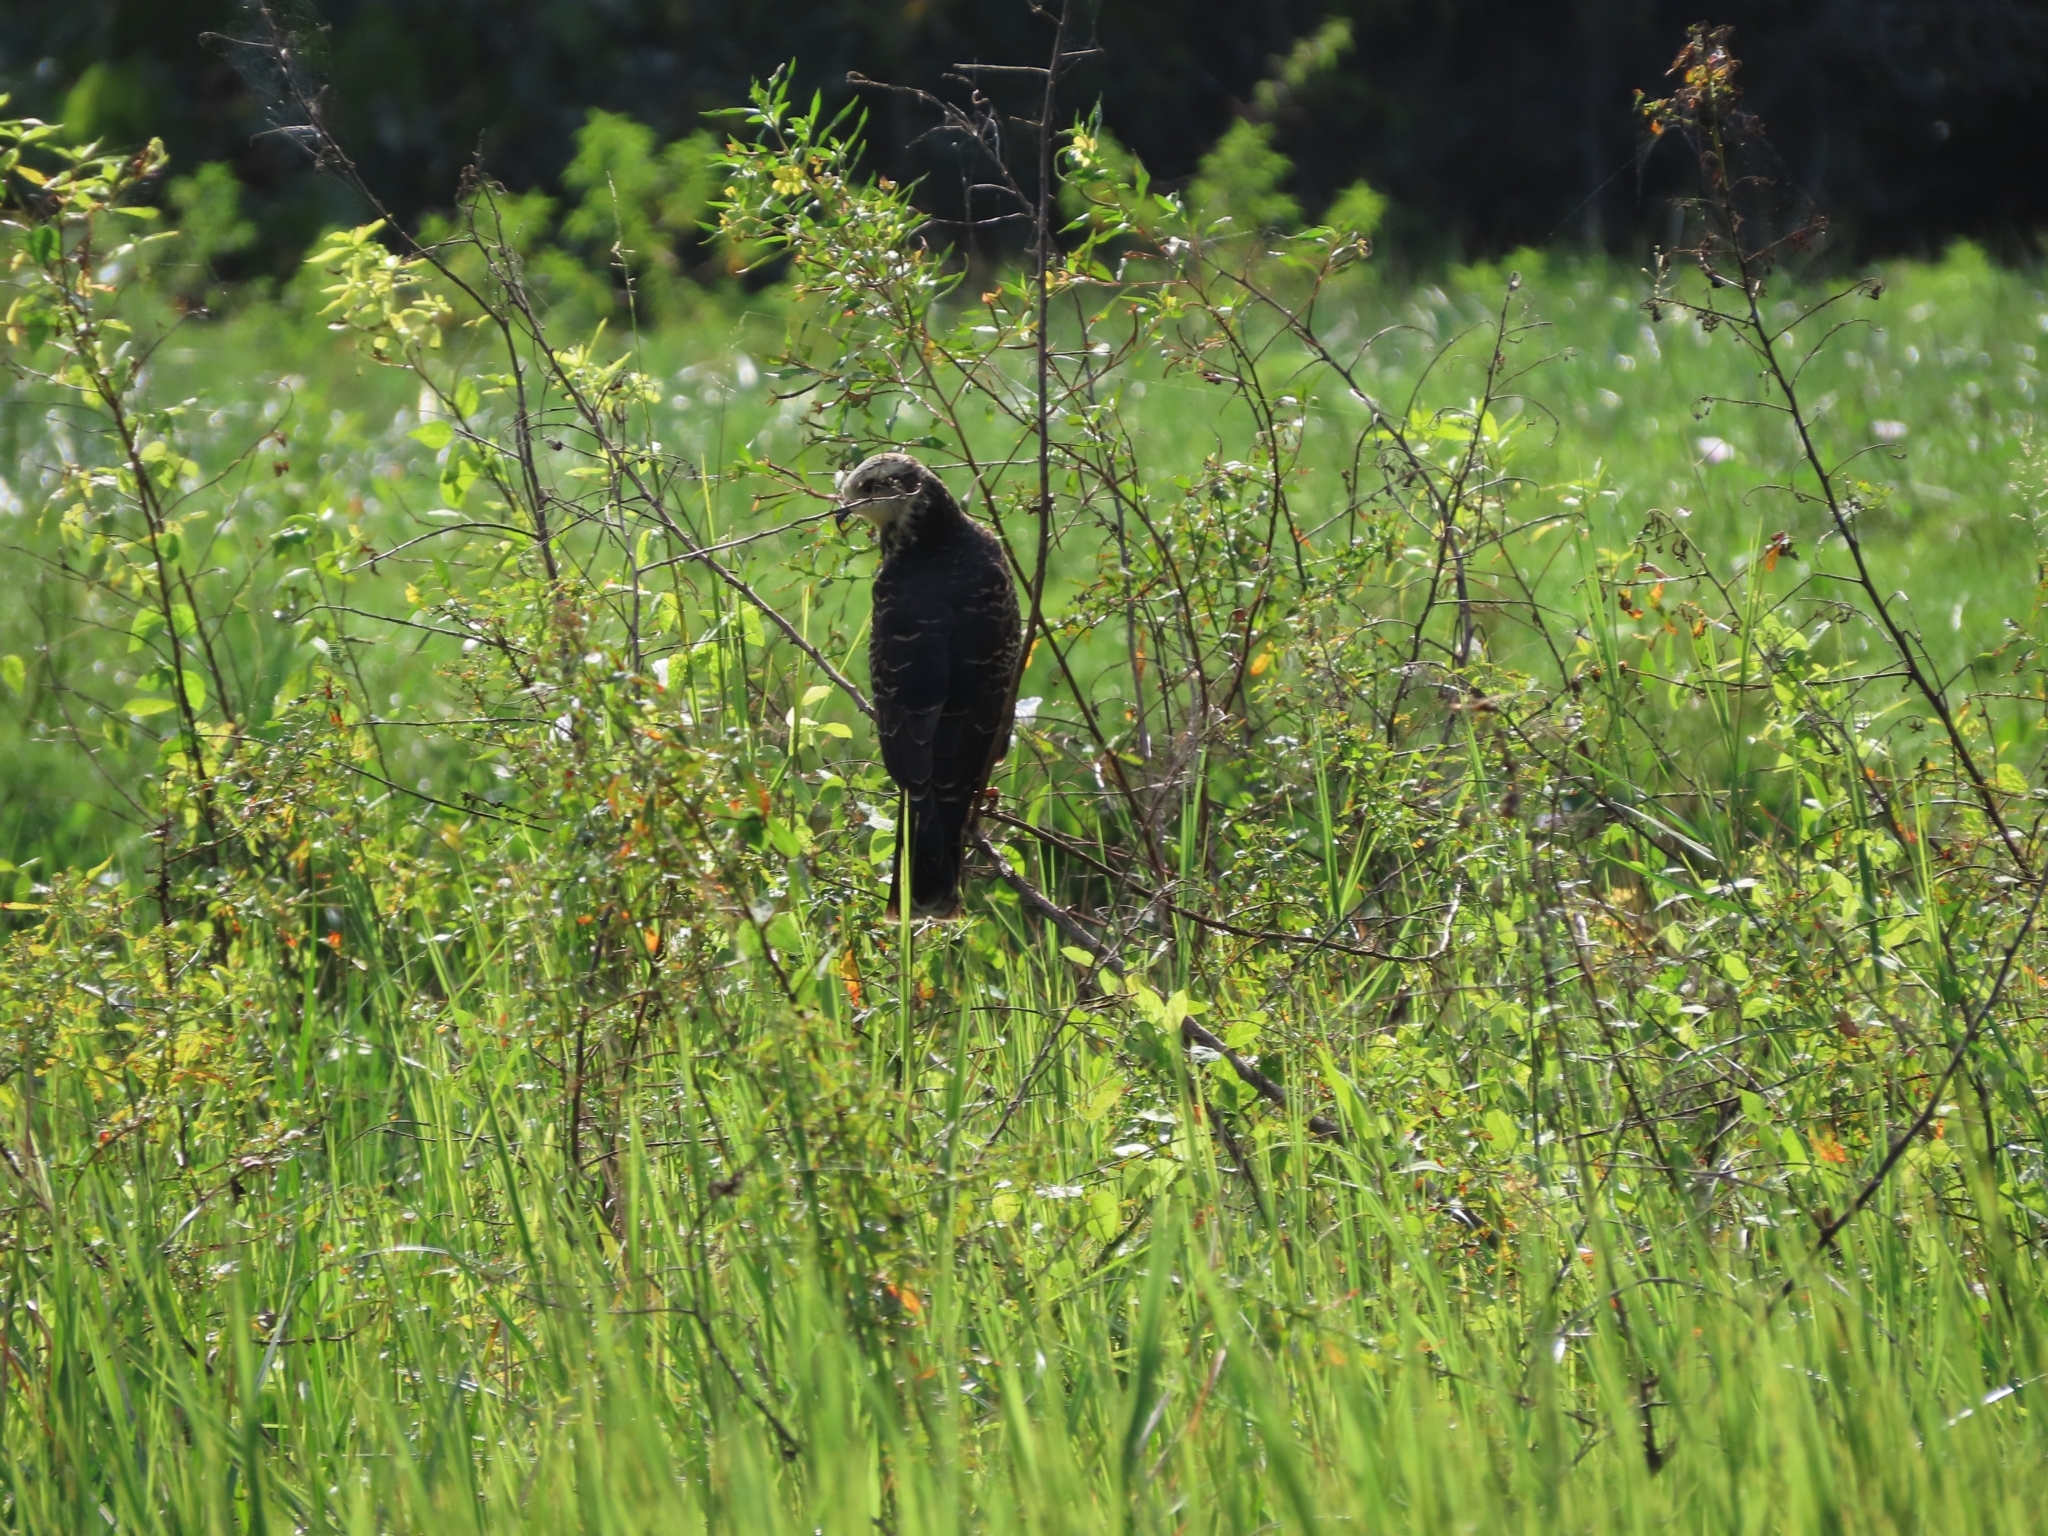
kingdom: Animalia
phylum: Chordata
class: Aves
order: Accipitriformes
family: Accipitridae
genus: Rostrhamus
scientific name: Rostrhamus sociabilis
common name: Snail kite
